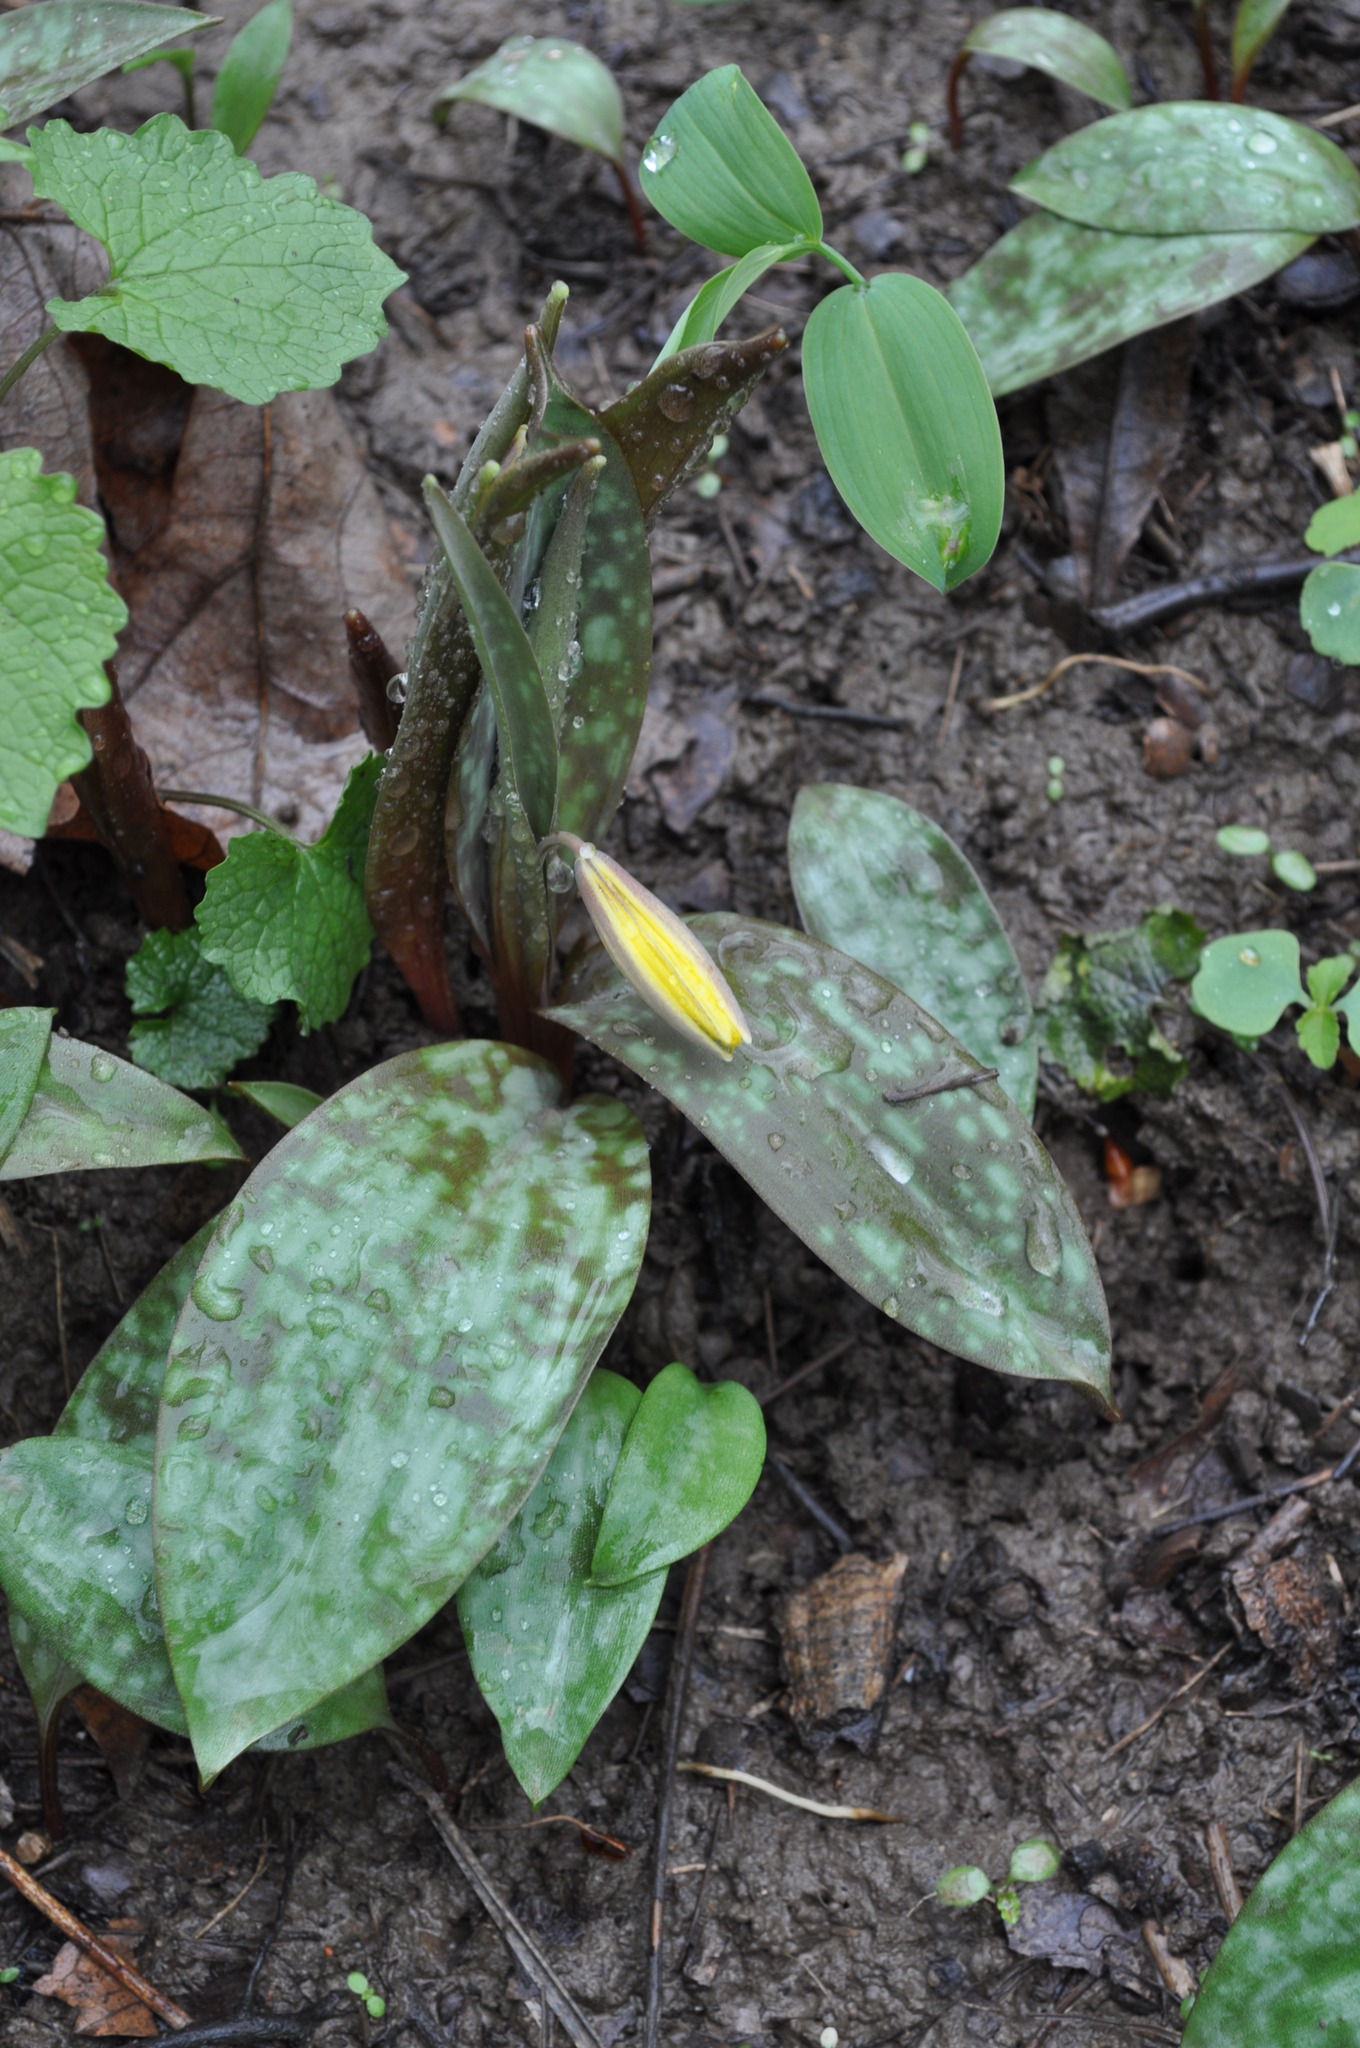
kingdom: Plantae
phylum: Tracheophyta
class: Liliopsida
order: Liliales
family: Liliaceae
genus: Erythronium
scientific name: Erythronium americanum
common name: Yellow adder's-tongue
